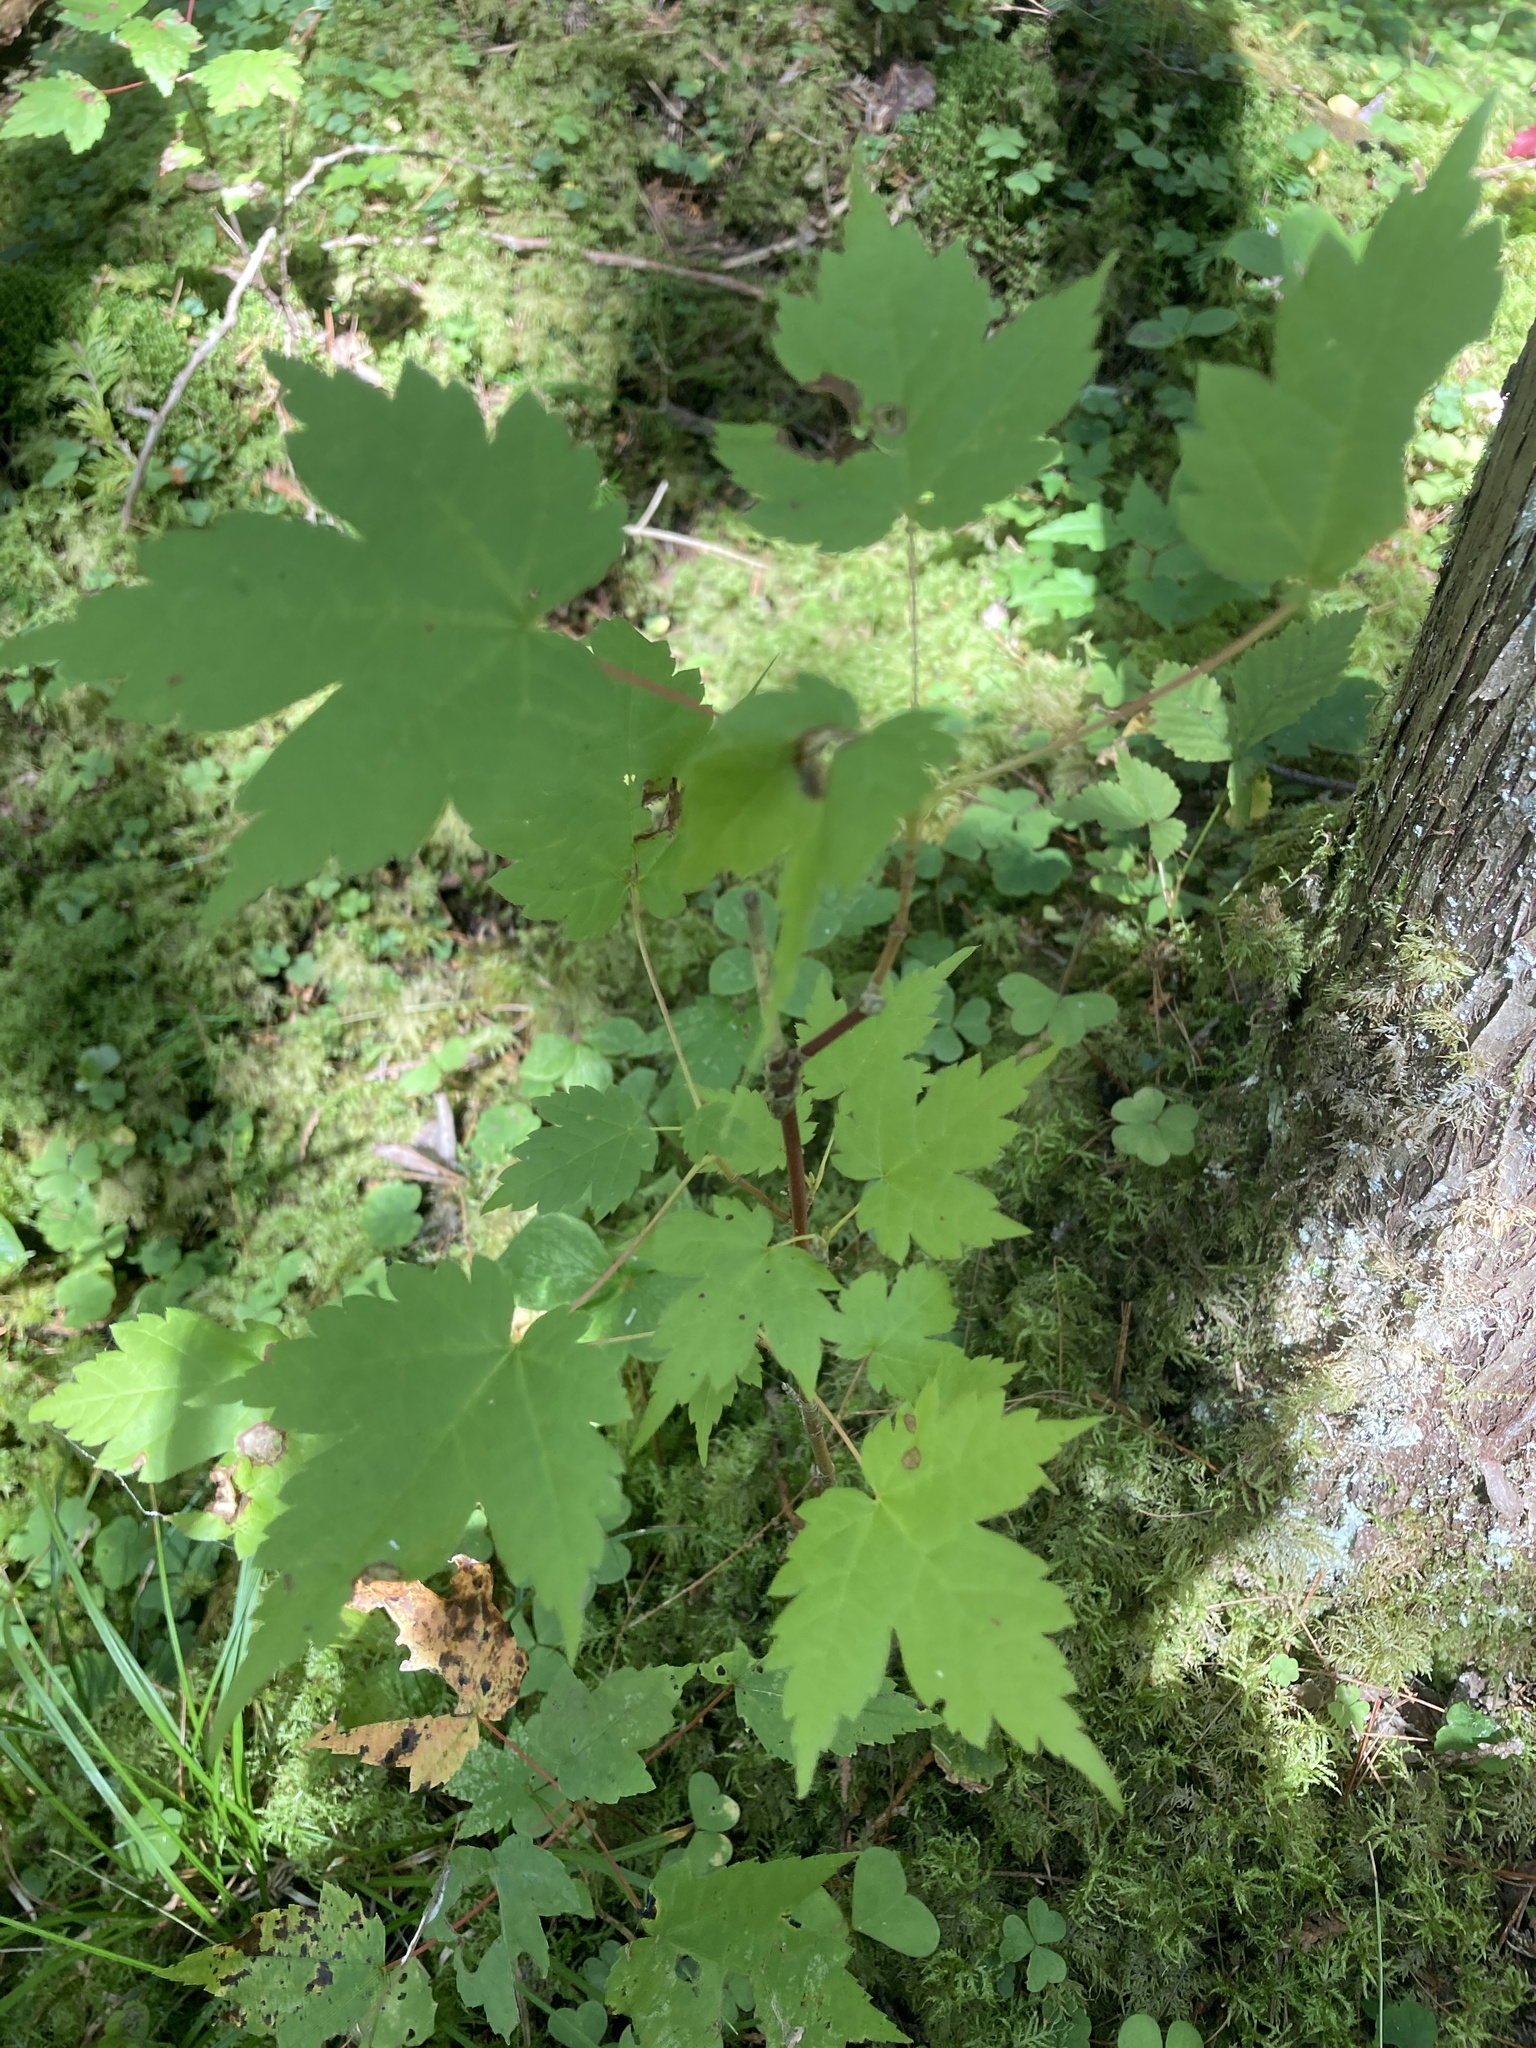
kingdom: Plantae
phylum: Tracheophyta
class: Magnoliopsida
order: Sapindales
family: Sapindaceae
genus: Acer
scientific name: Acer spicatum
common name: Mountain maple
